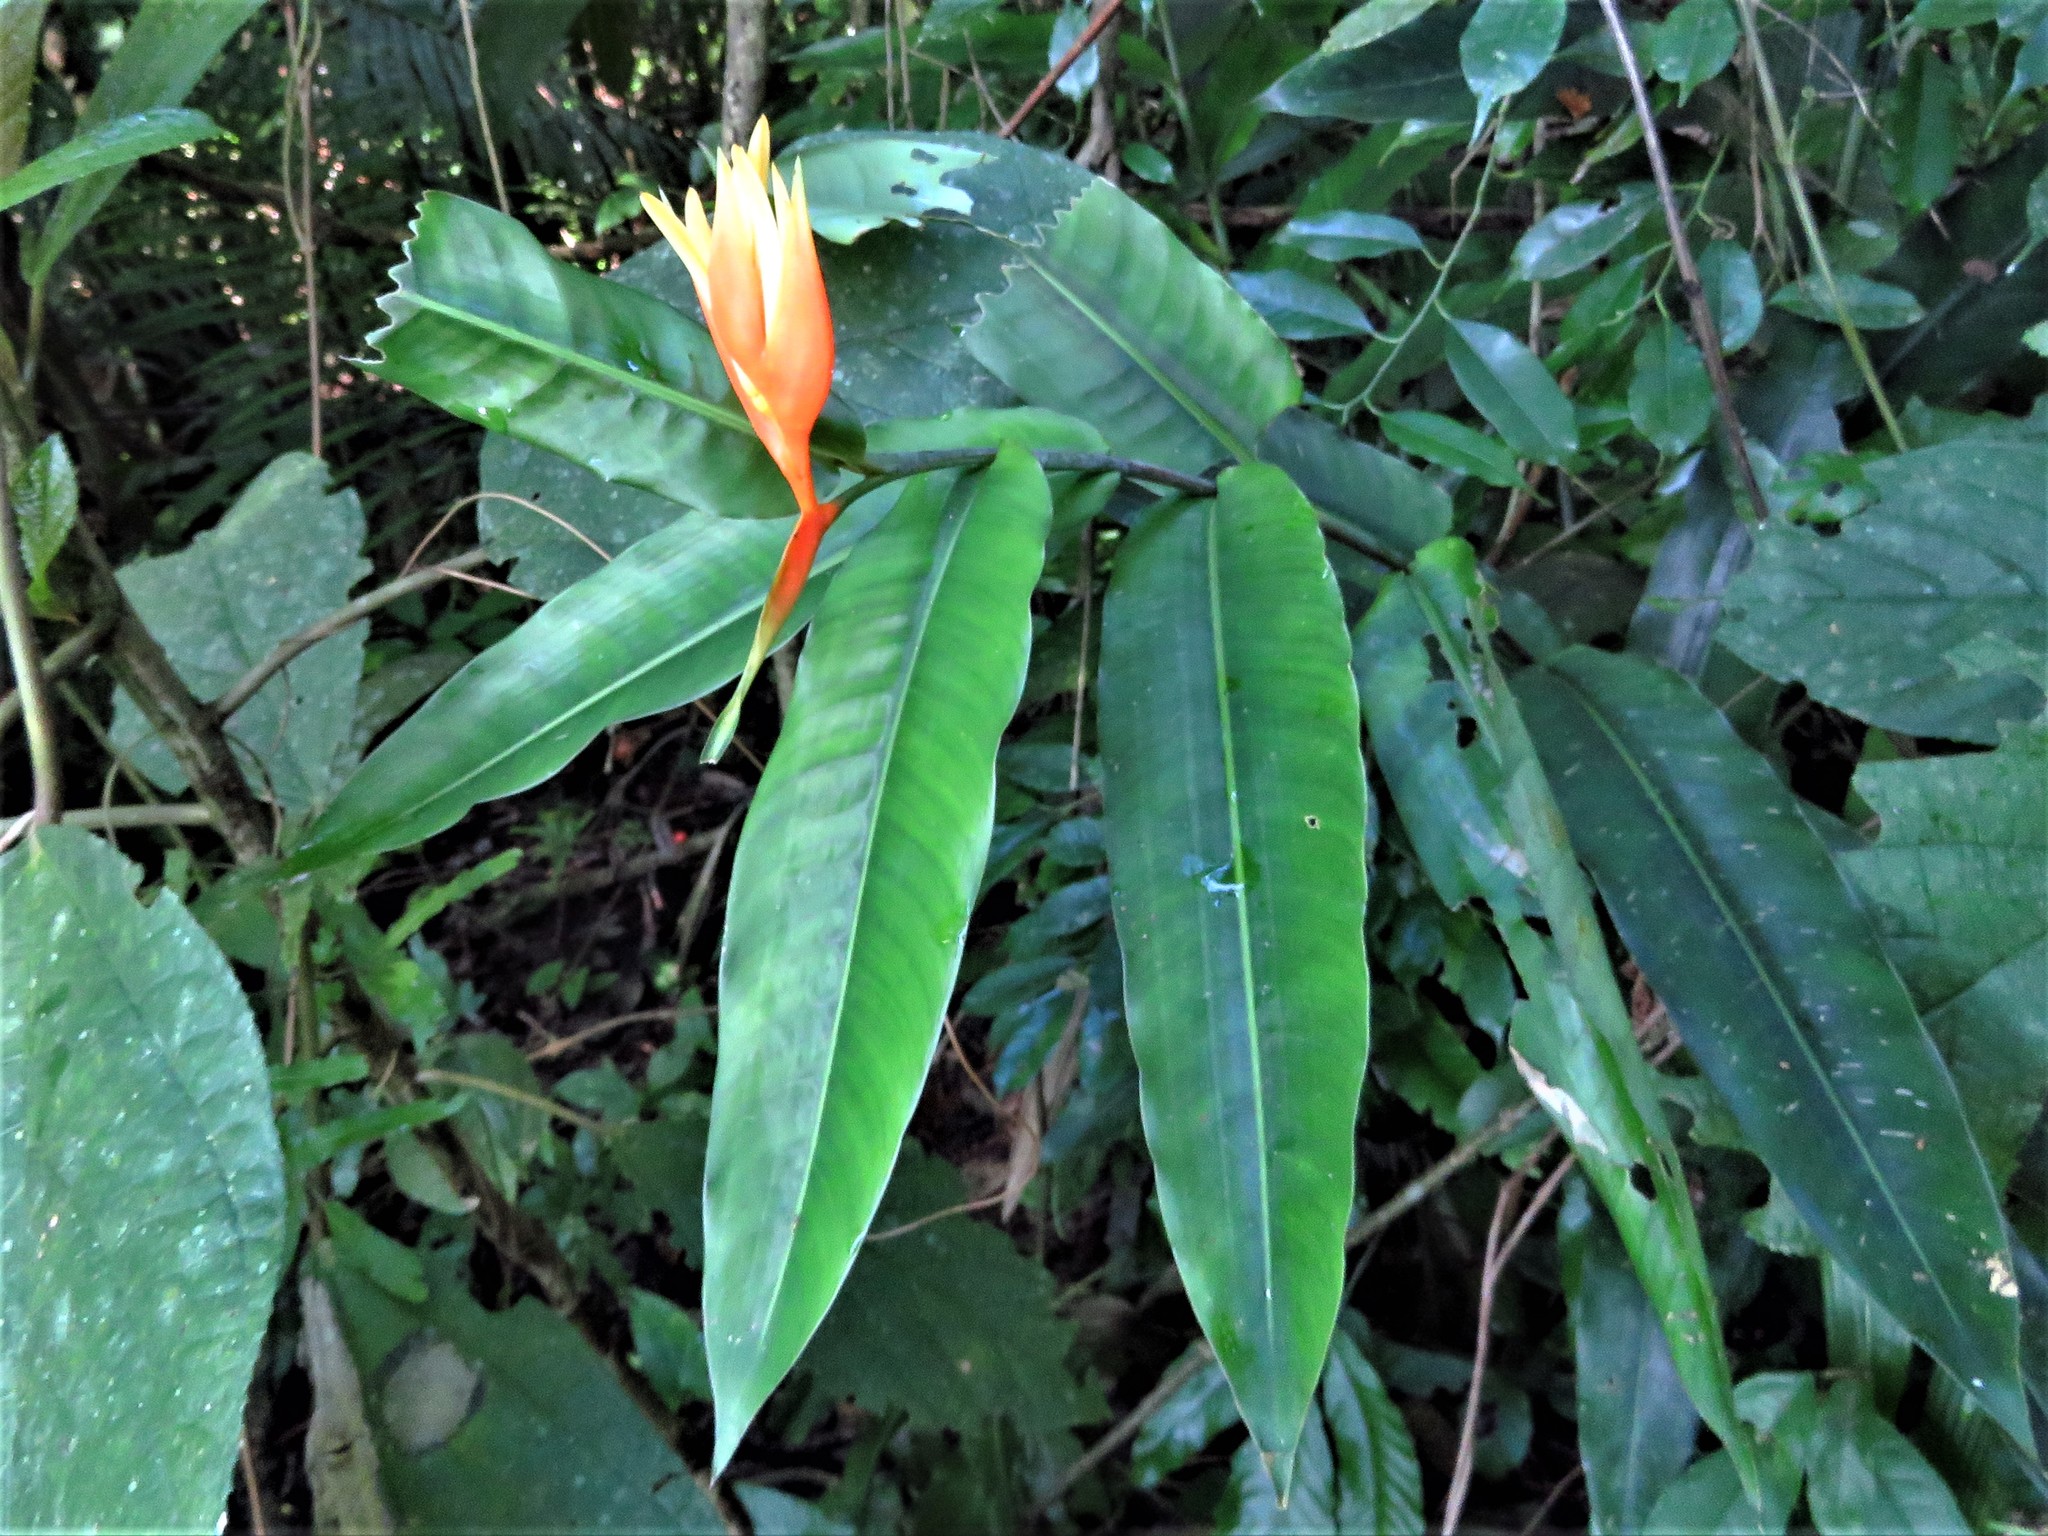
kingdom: Plantae
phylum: Tracheophyta
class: Liliopsida
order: Zingiberales
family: Heliconiaceae
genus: Heliconia
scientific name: Heliconia aurantiaca
